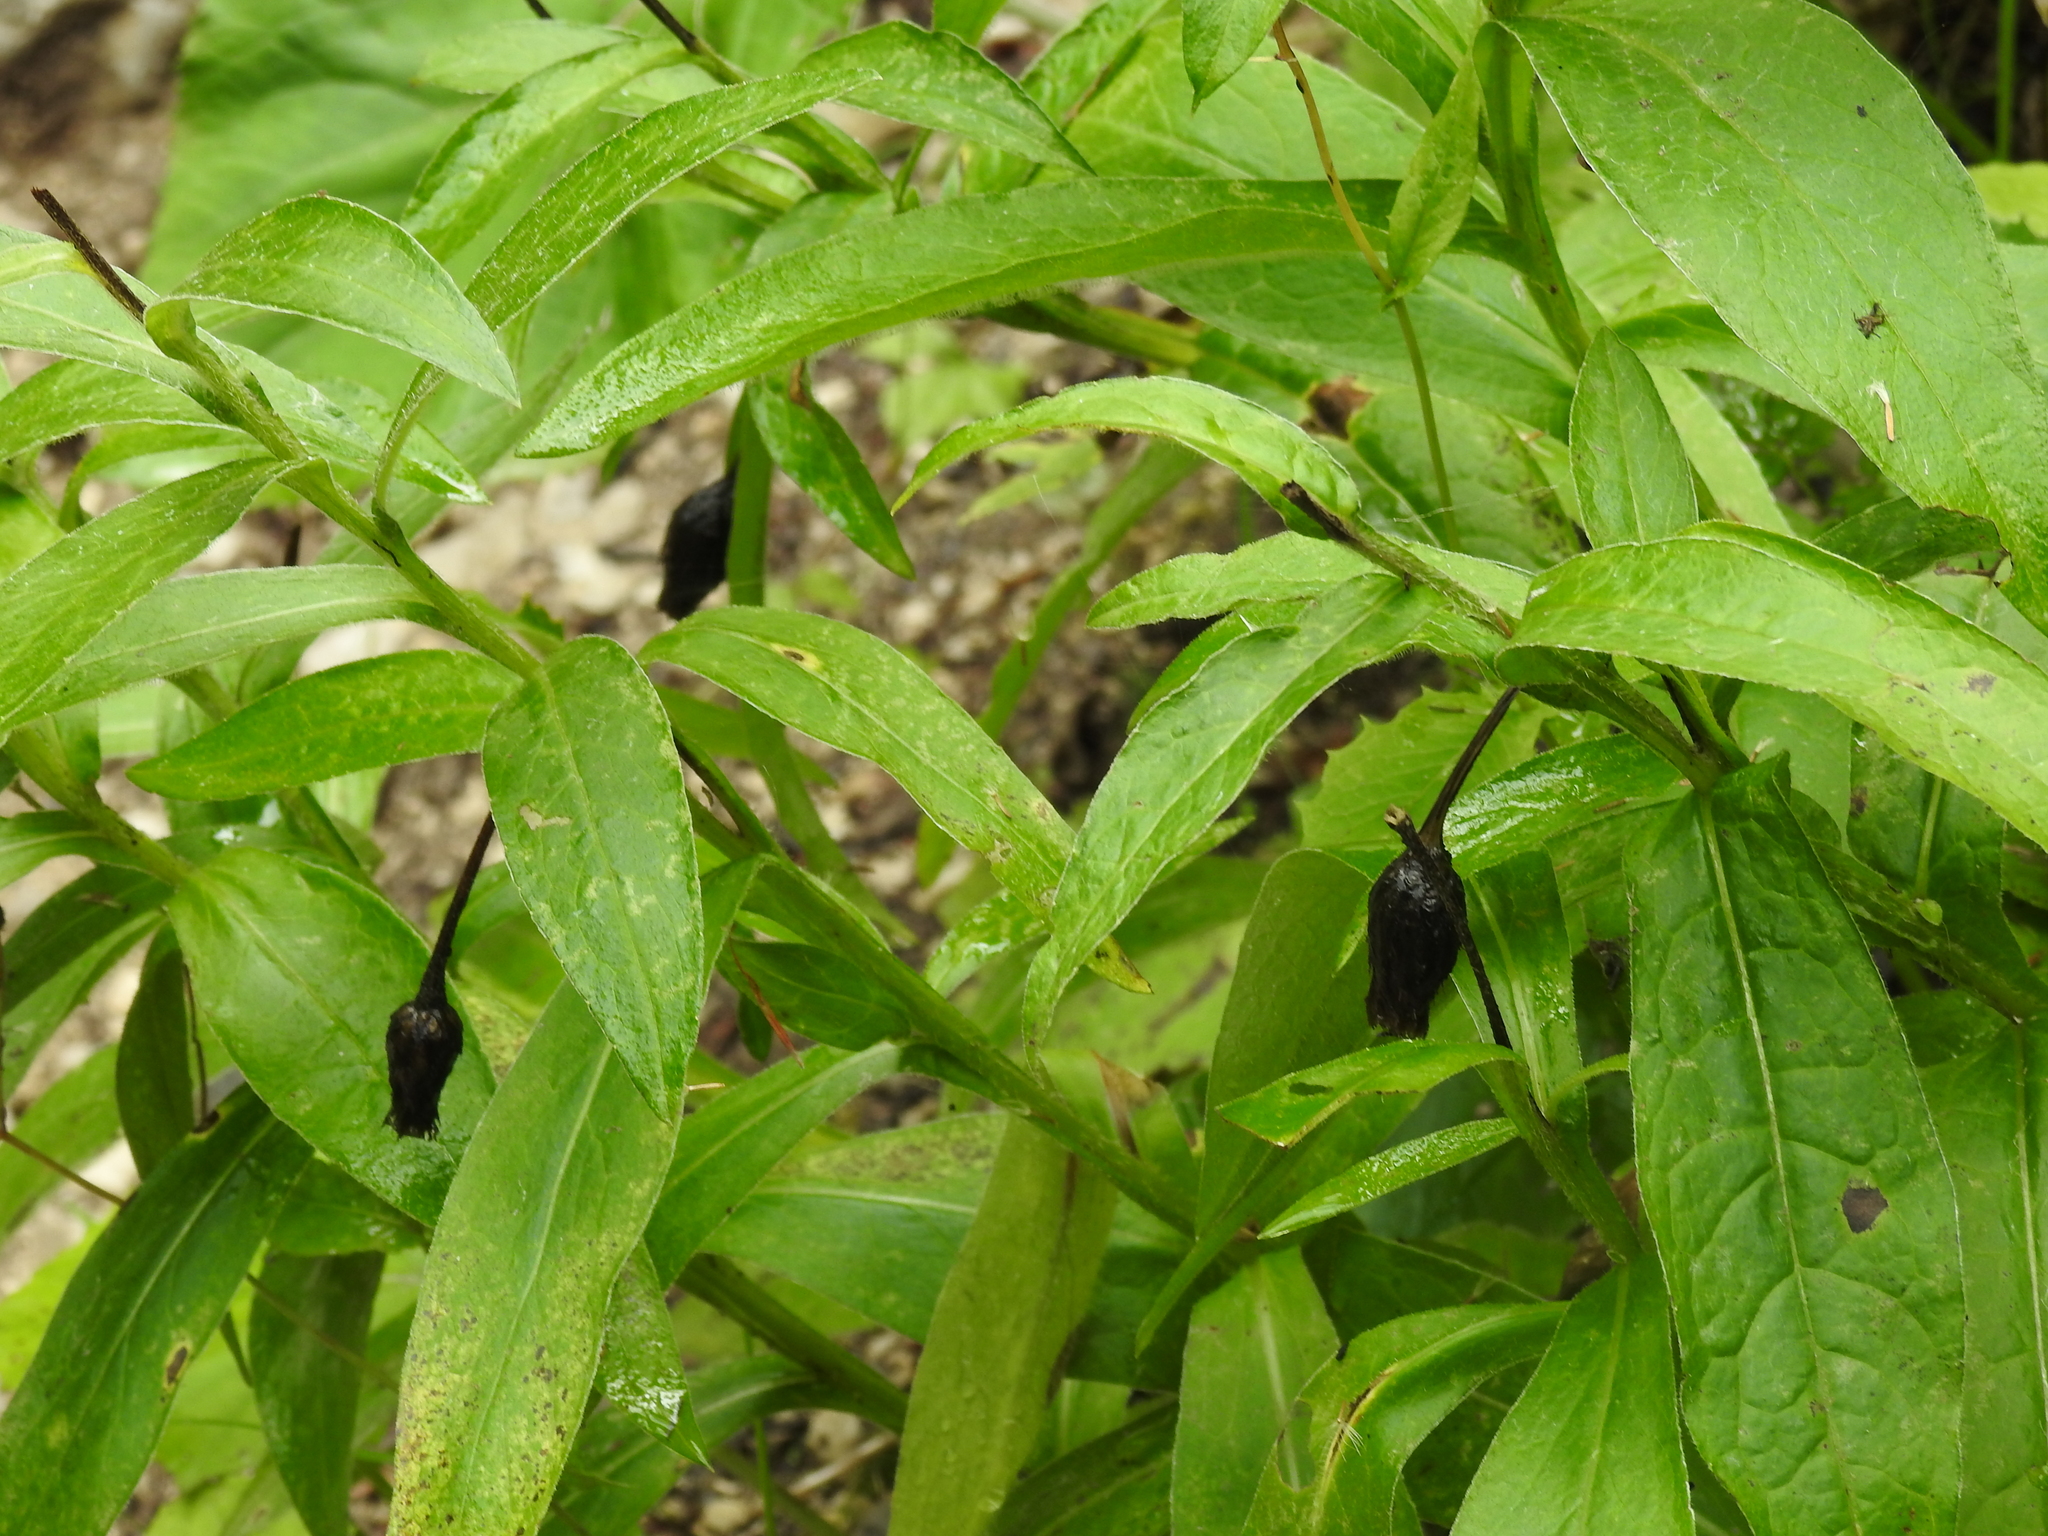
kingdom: Plantae
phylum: Tracheophyta
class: Magnoliopsida
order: Asterales
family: Asteraceae
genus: Centaurea
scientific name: Centaurea montana
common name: Perennial cornflower
